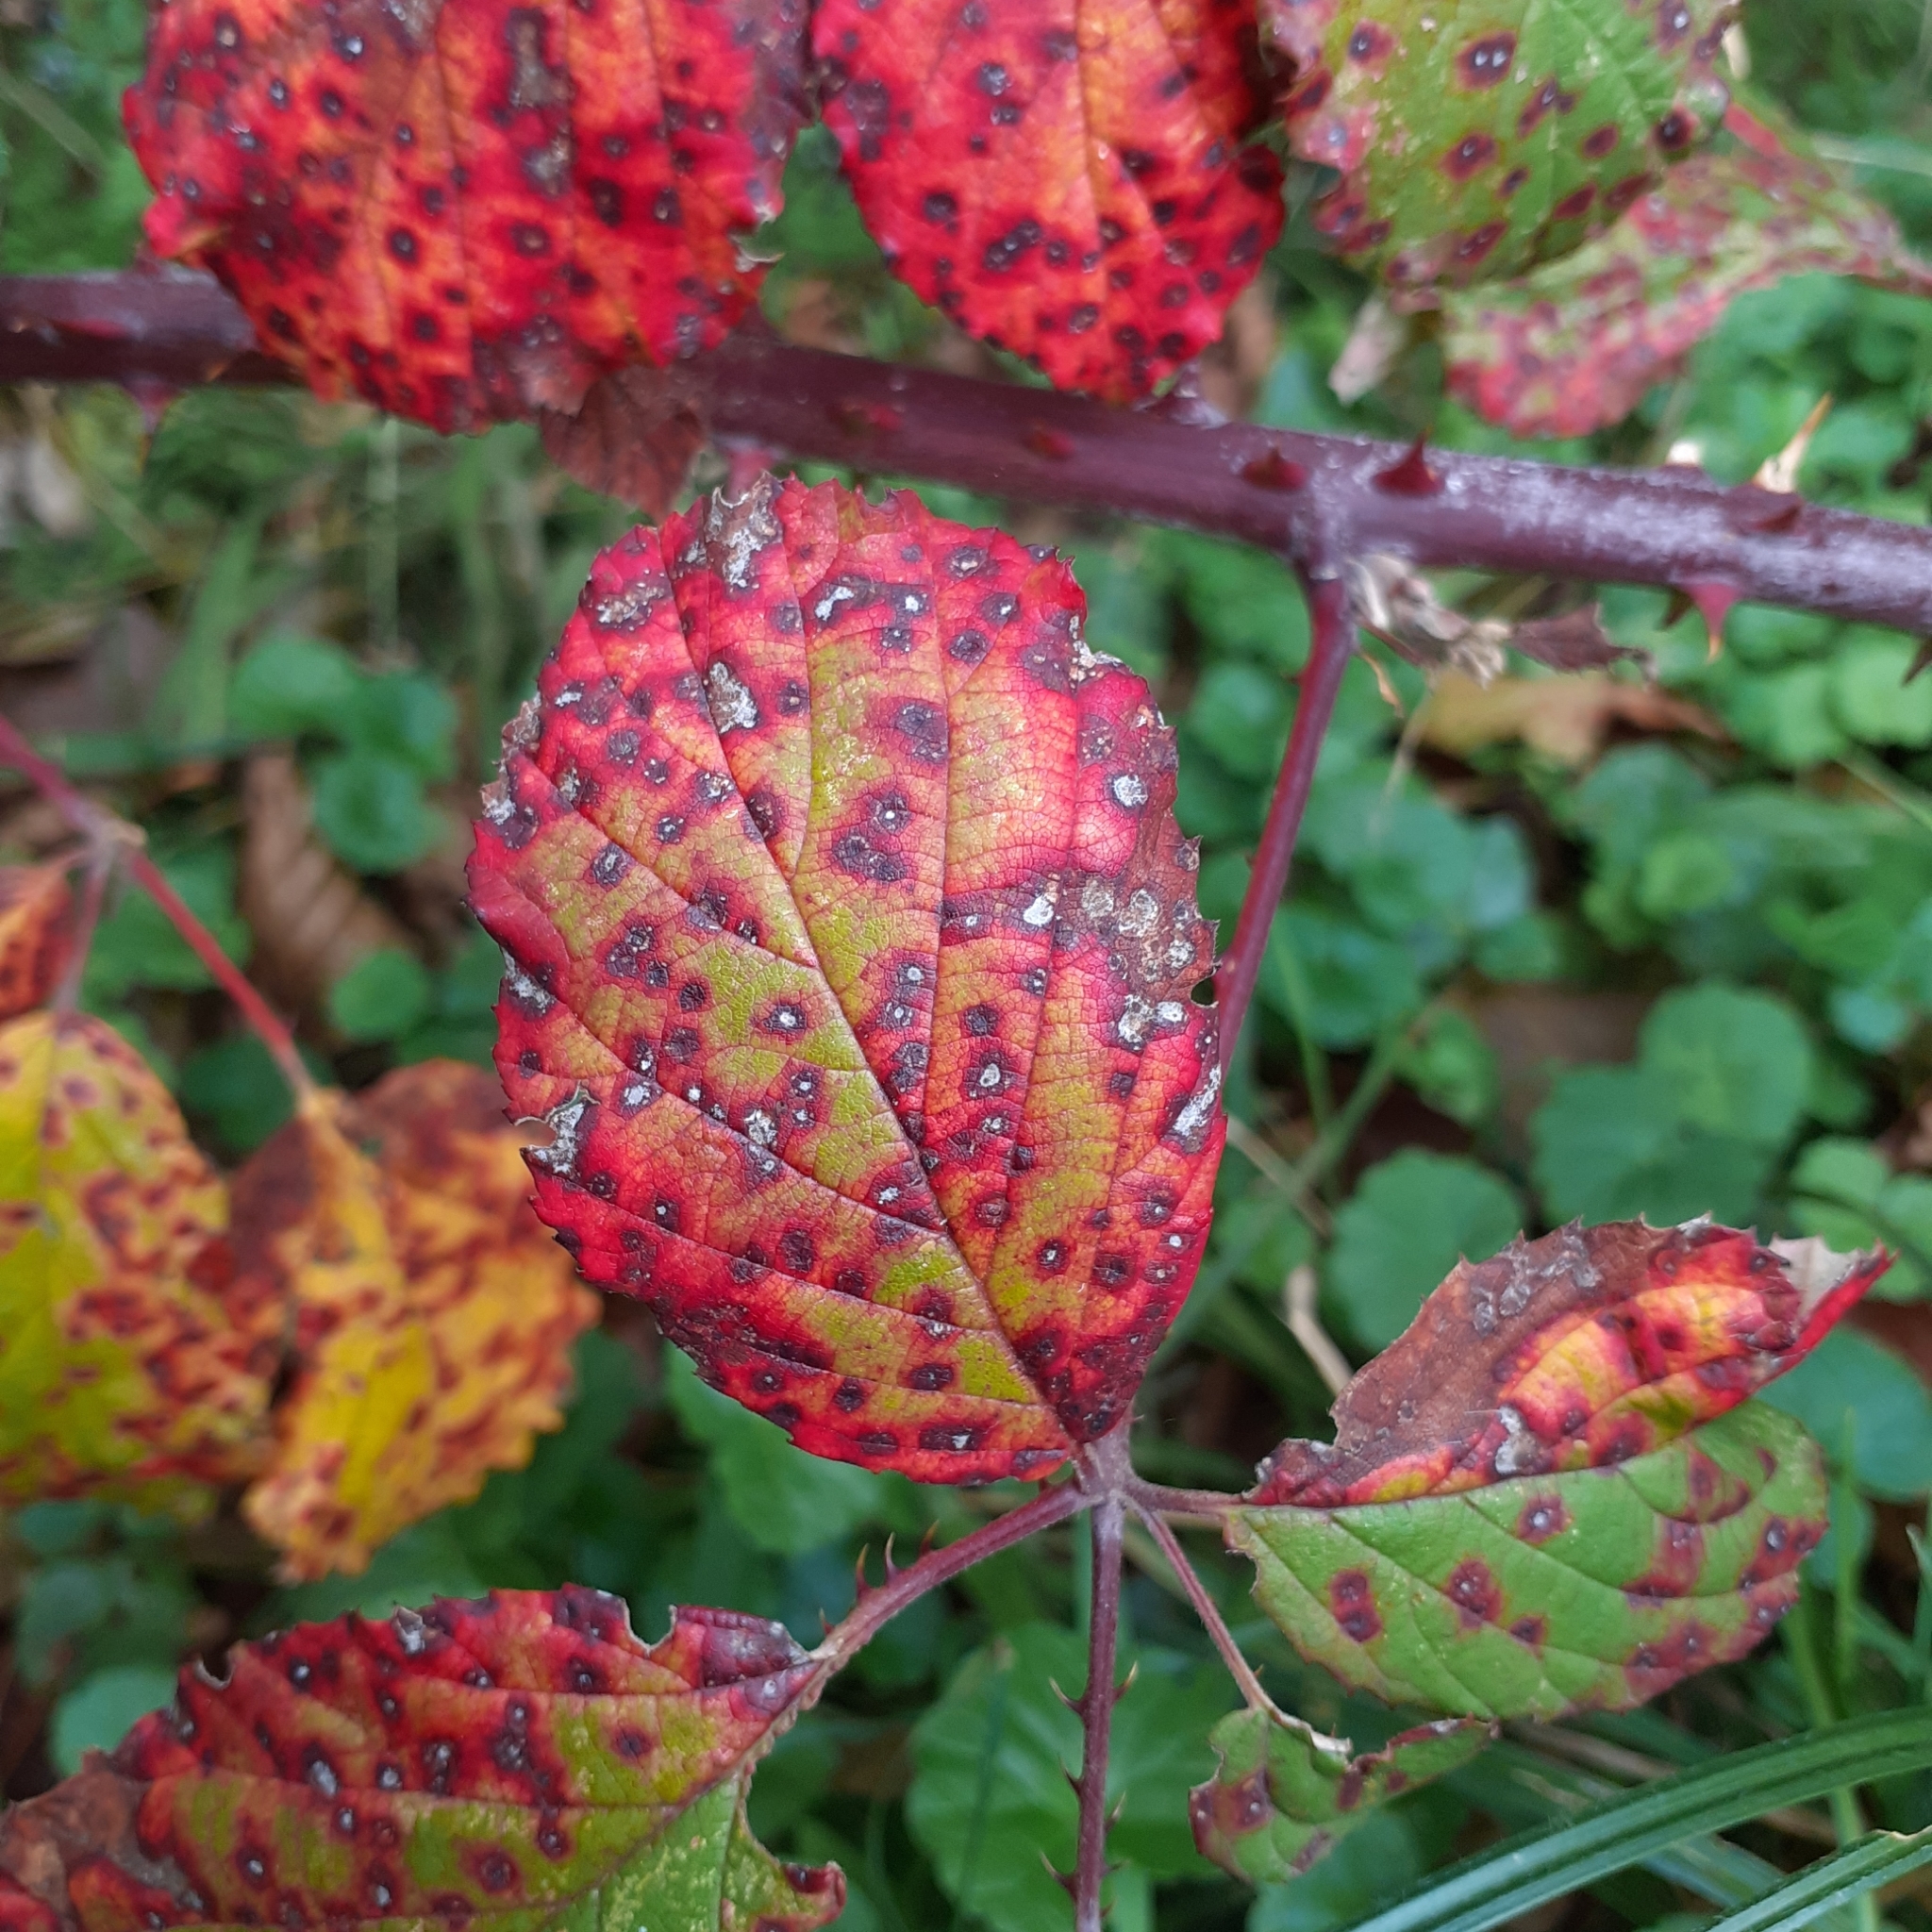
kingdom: Fungi
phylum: Basidiomycota
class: Pucciniomycetes
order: Pucciniales
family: Phragmidiaceae
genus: Phragmidium
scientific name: Phragmidium violaceum
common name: Violet bramble rust
